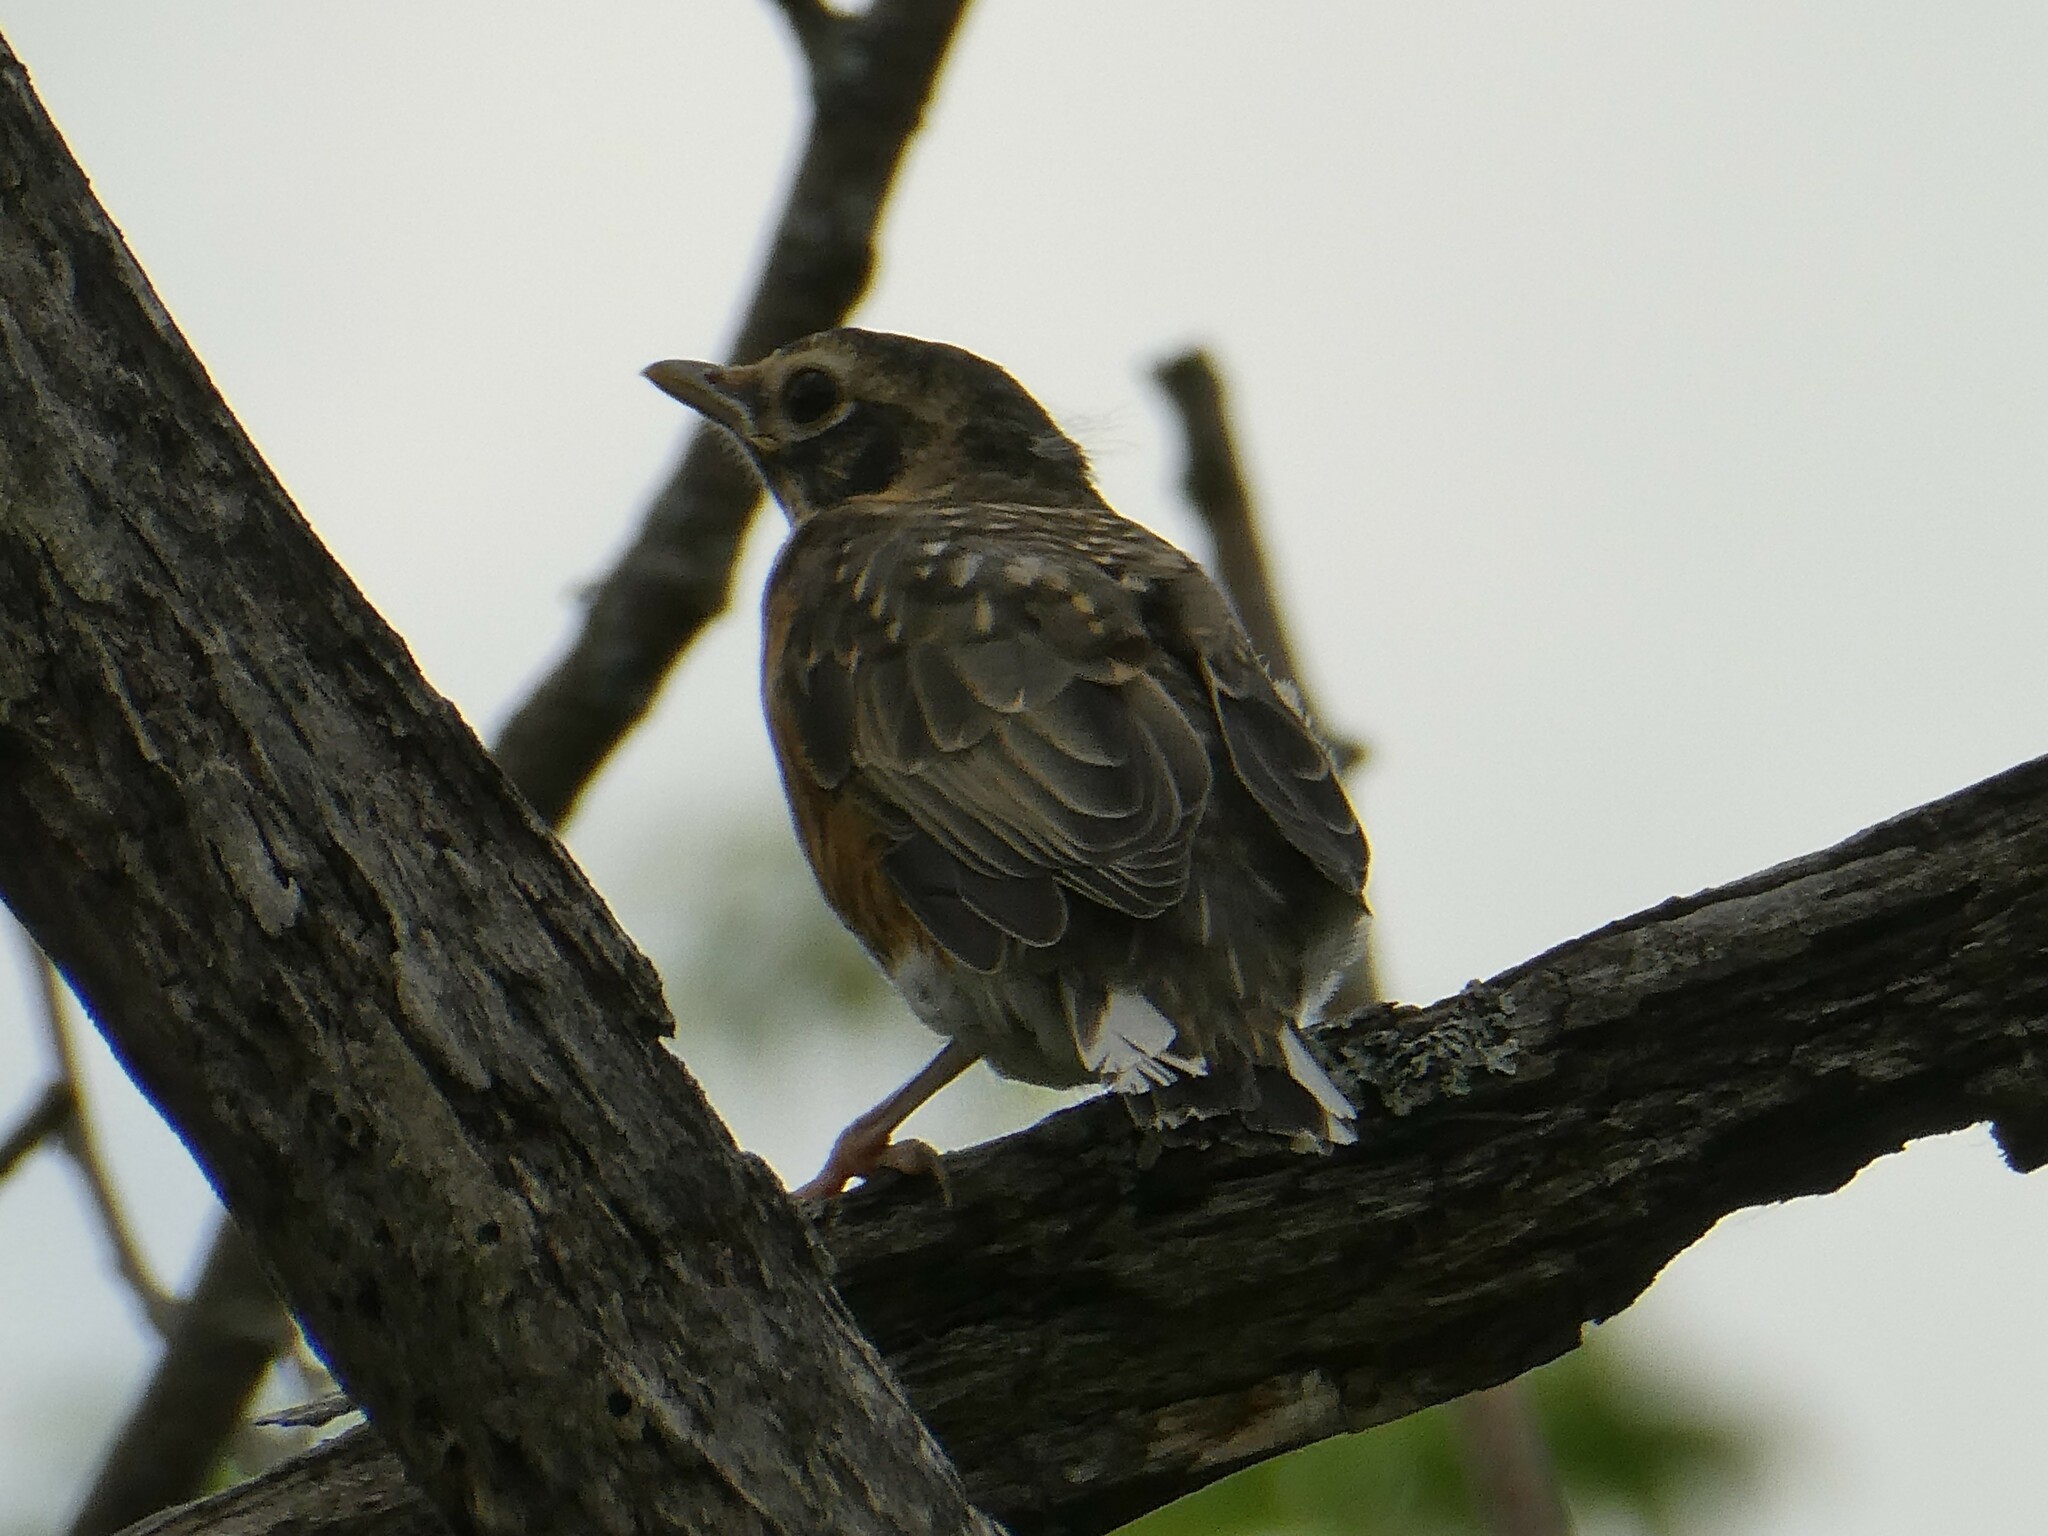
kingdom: Animalia
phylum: Chordata
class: Aves
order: Passeriformes
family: Turdidae
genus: Turdus
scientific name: Turdus migratorius
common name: American robin
